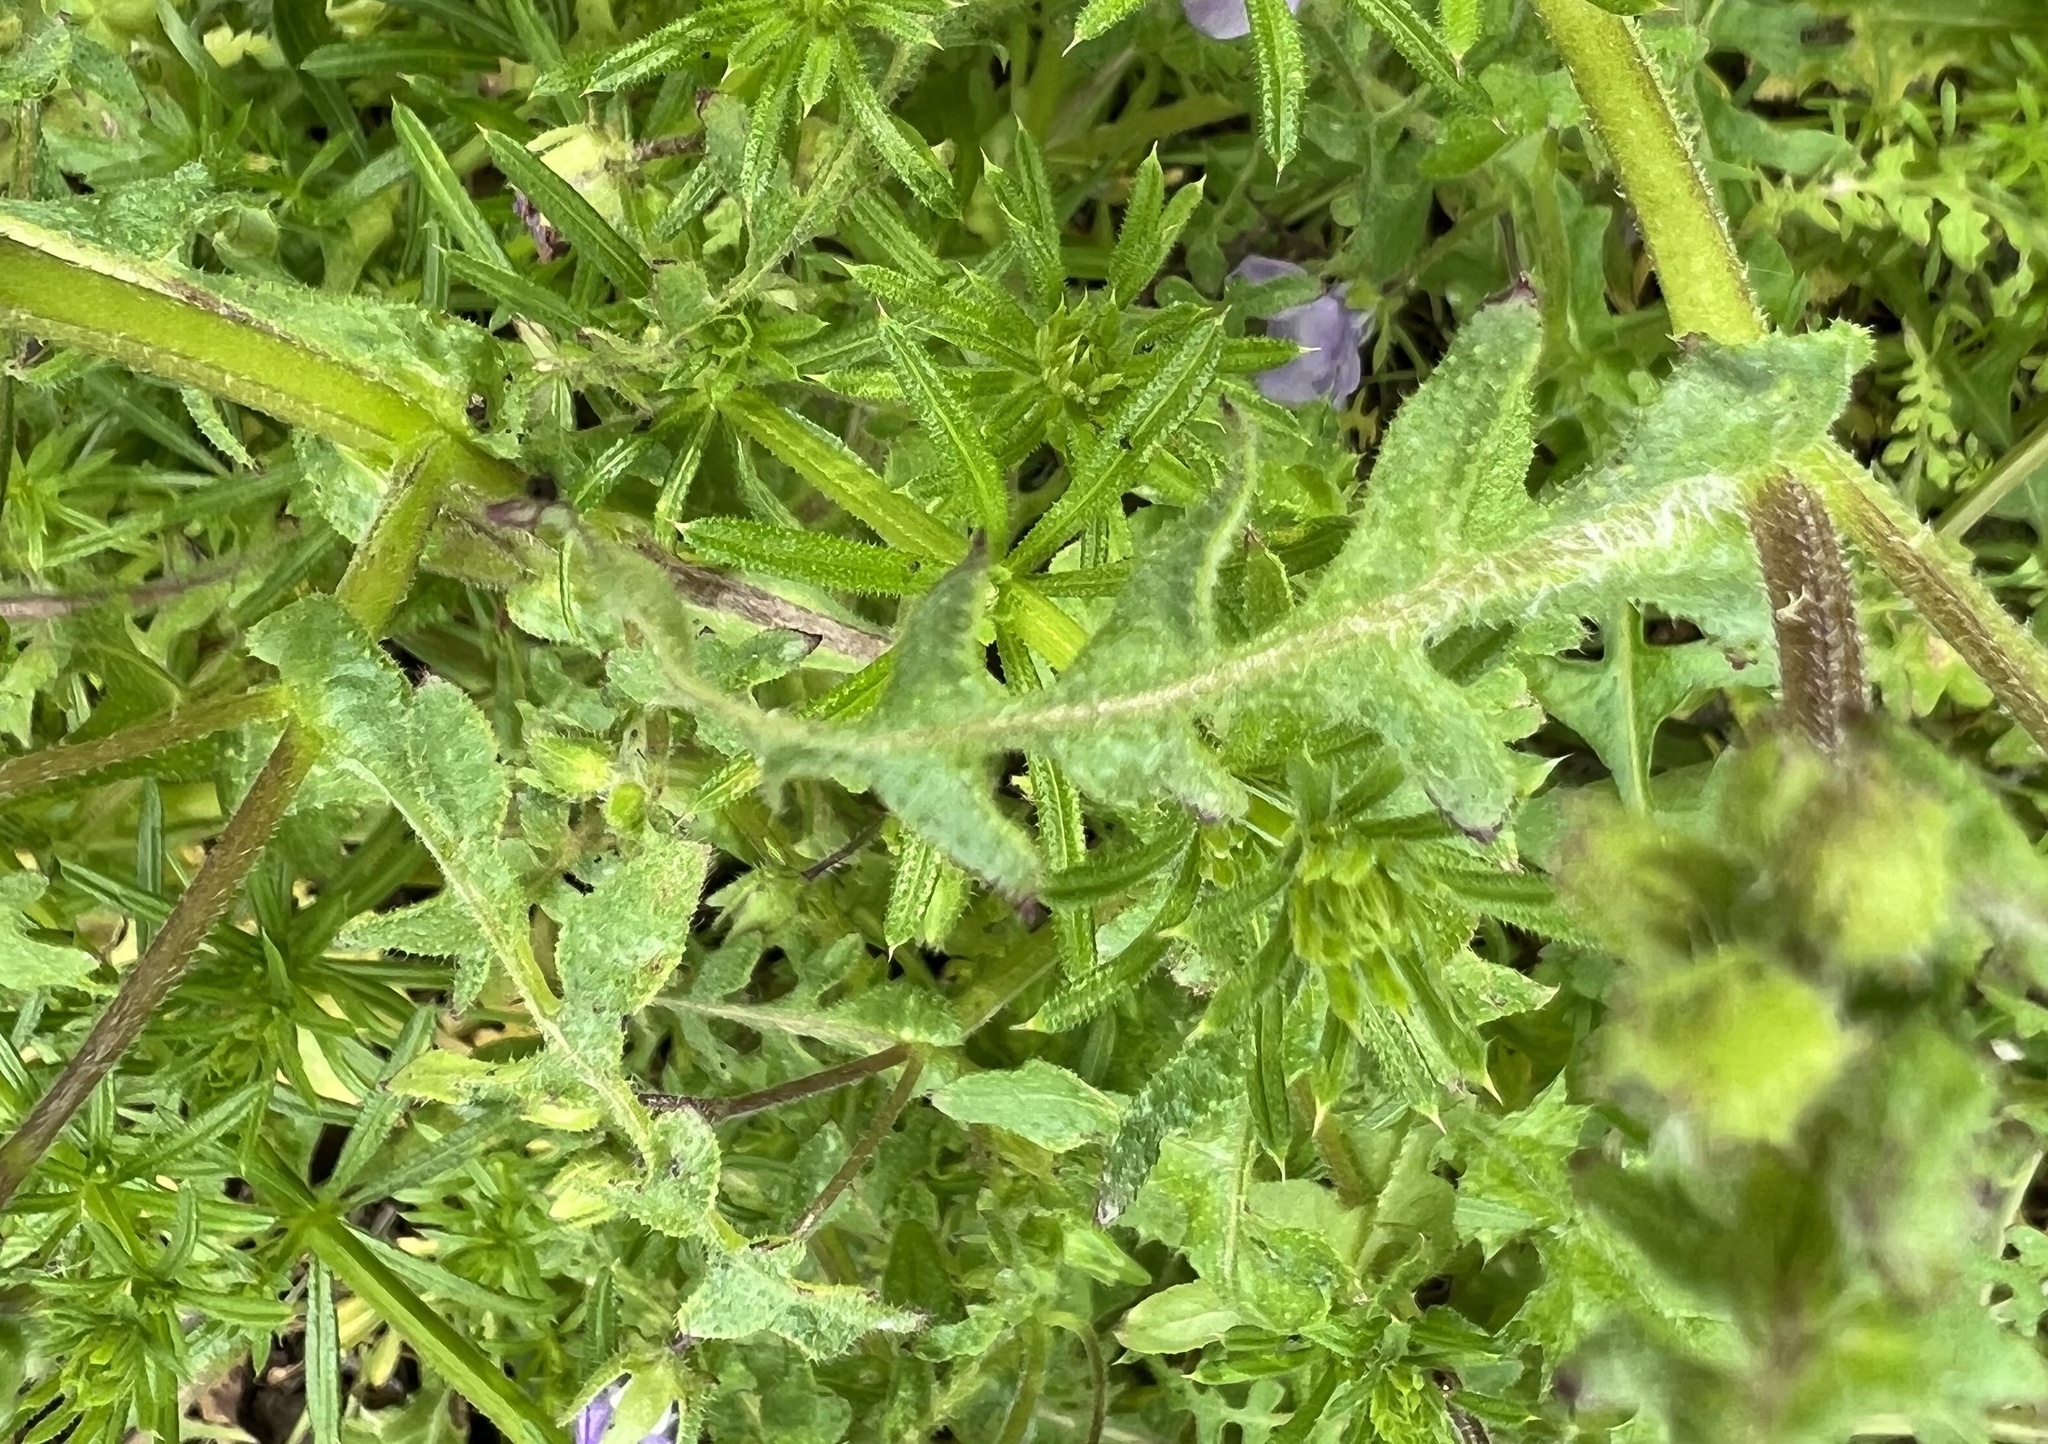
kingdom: Plantae
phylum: Tracheophyta
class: Magnoliopsida
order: Boraginales
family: Hydrophyllaceae
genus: Pholistoma
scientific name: Pholistoma auritum
